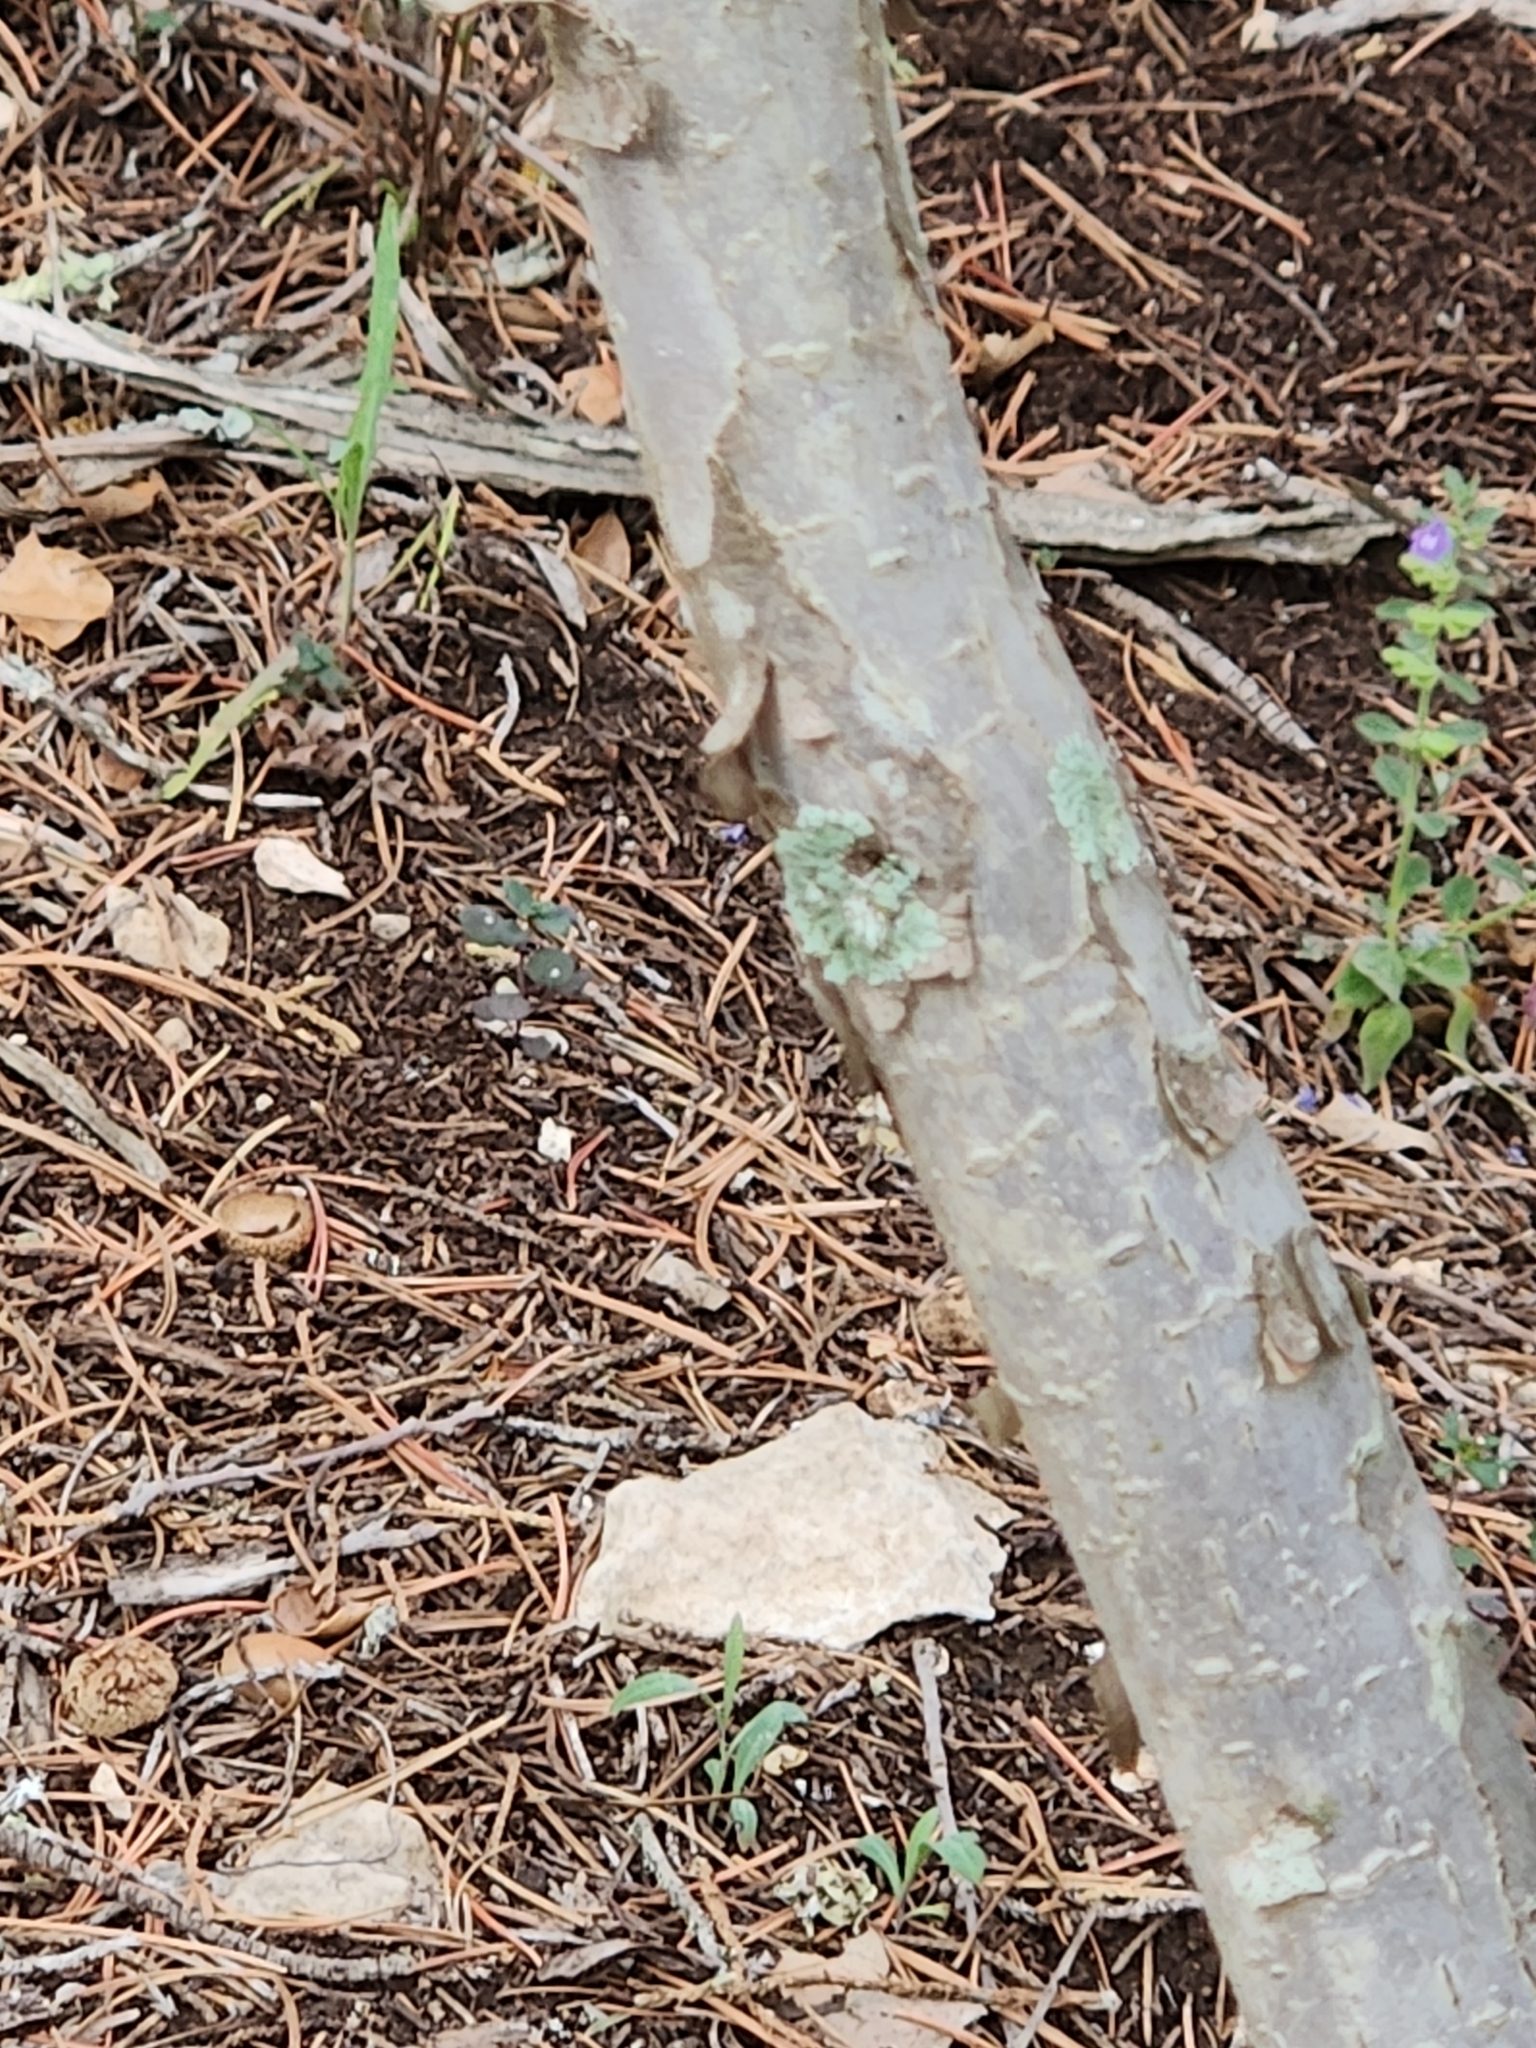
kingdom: Plantae
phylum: Tracheophyta
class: Magnoliopsida
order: Ericales
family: Ebenaceae
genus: Diospyros
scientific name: Diospyros texana
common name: Texas persimmon
